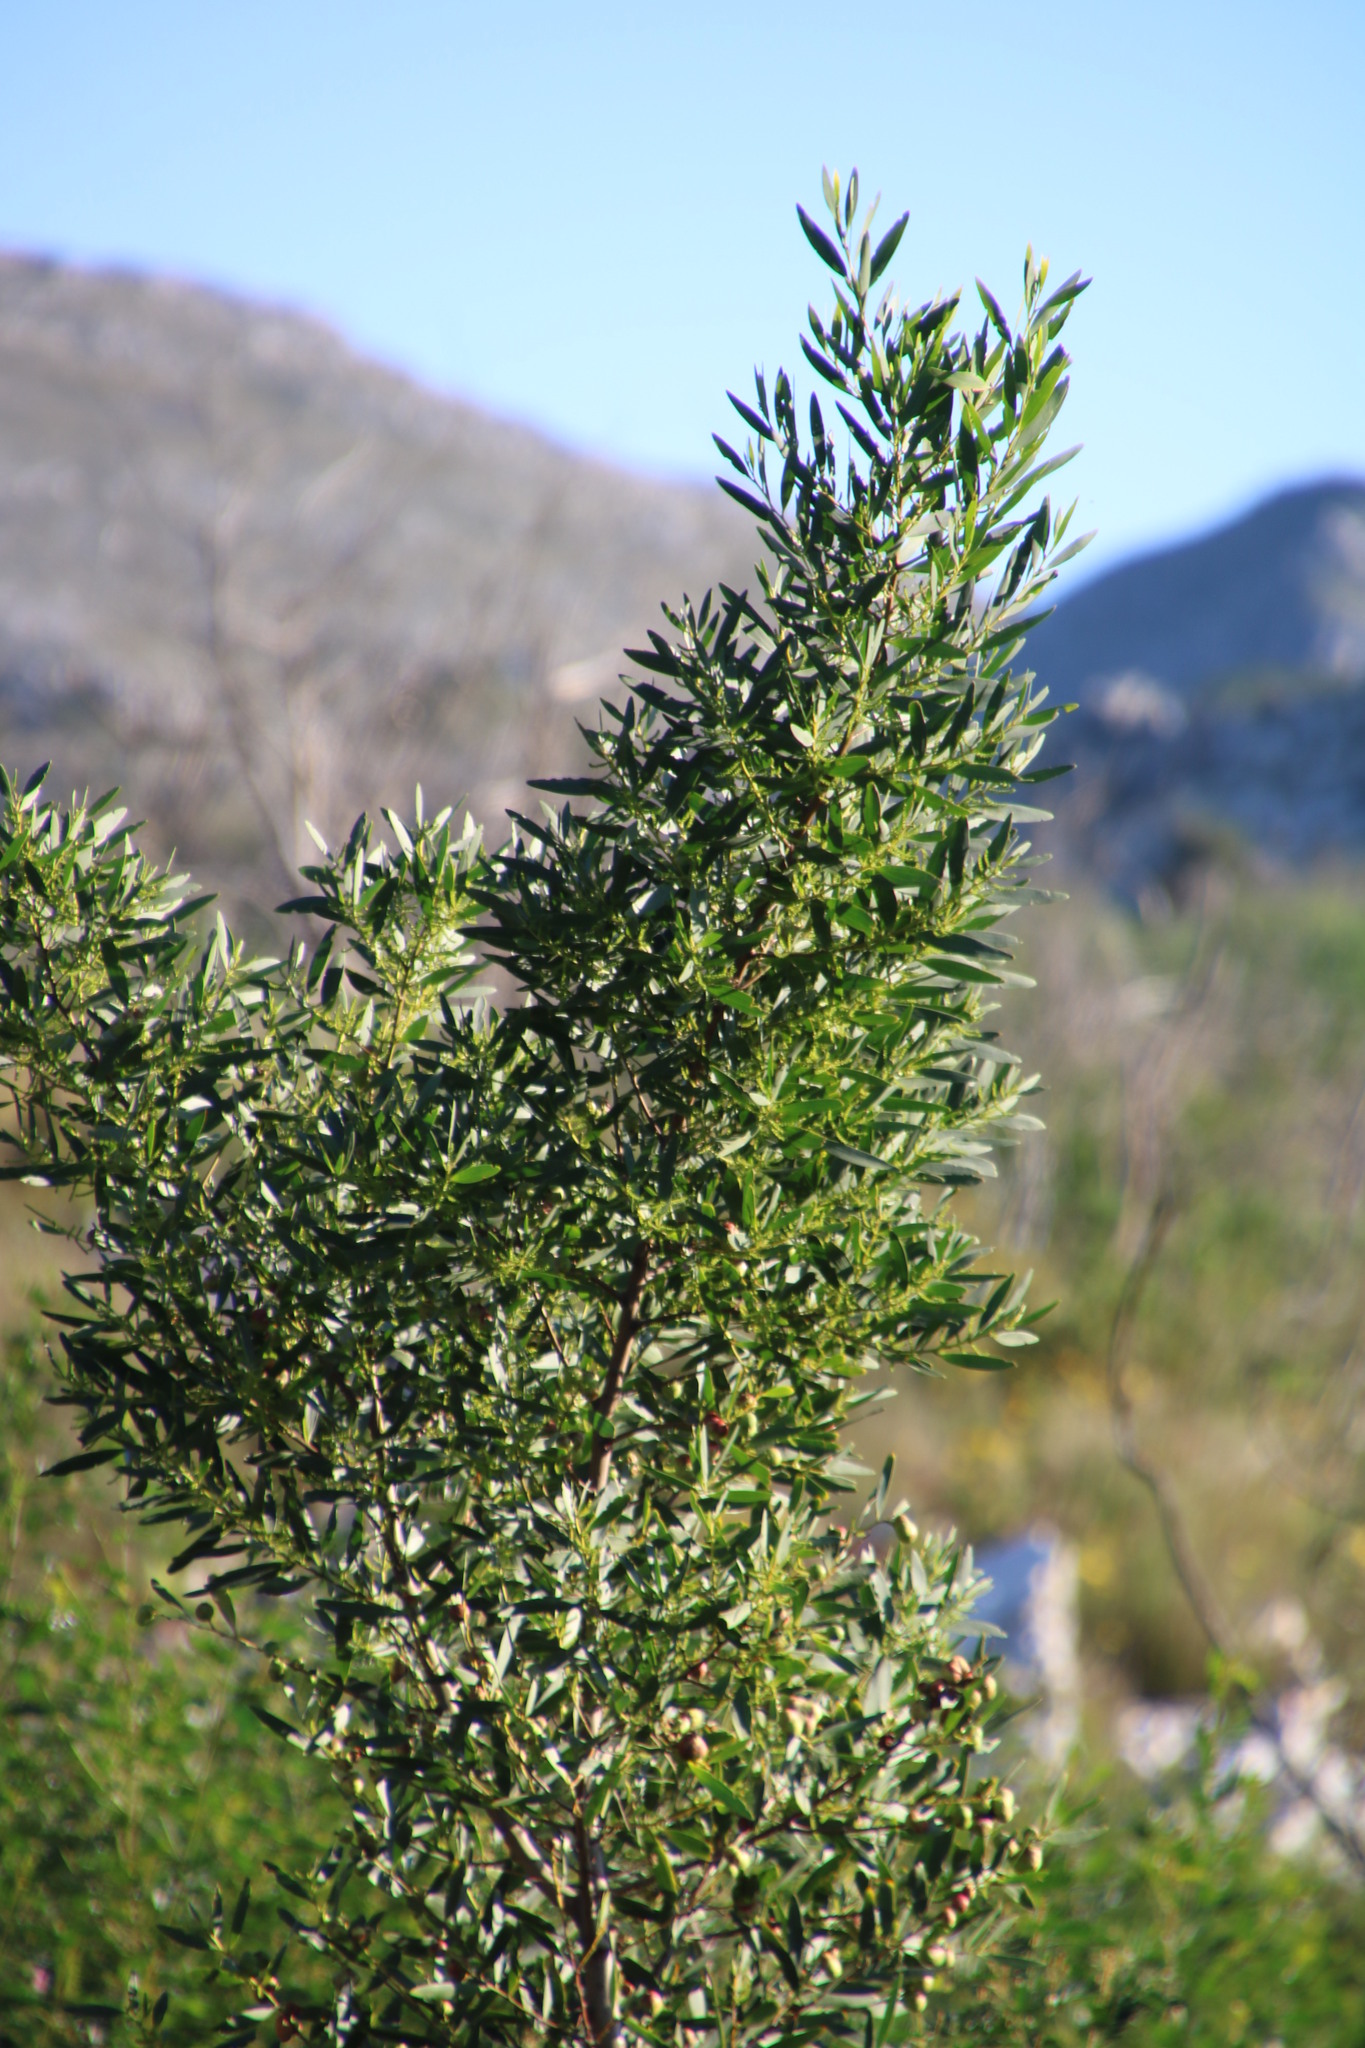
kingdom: Plantae
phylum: Tracheophyta
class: Magnoliopsida
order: Fabales
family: Fabaceae
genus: Acacia
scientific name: Acacia longifolia
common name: Sydney golden wattle
